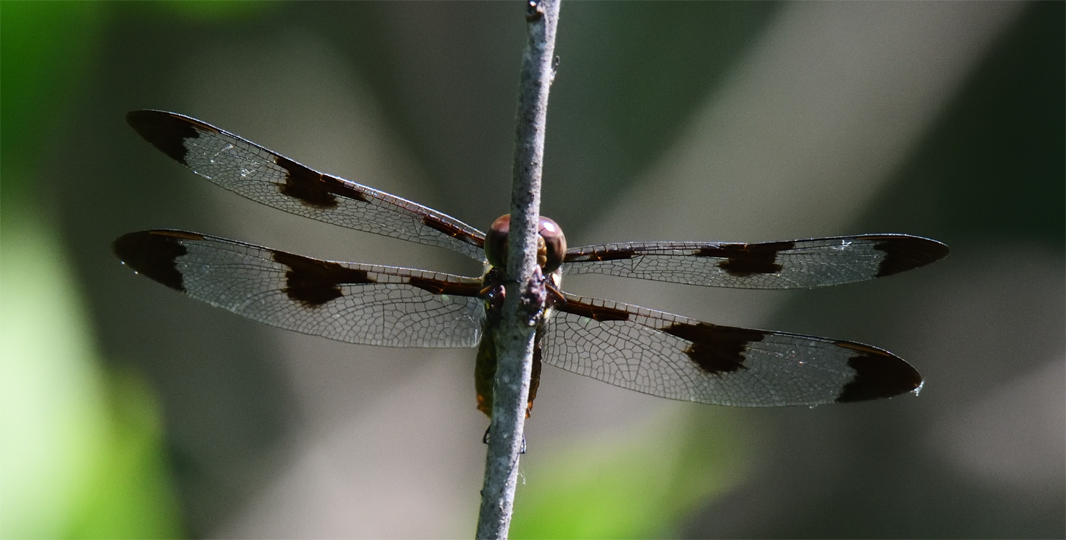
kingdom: Animalia
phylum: Arthropoda
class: Insecta
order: Odonata
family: Libellulidae
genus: Plathemis
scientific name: Plathemis lydia
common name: Common whitetail
